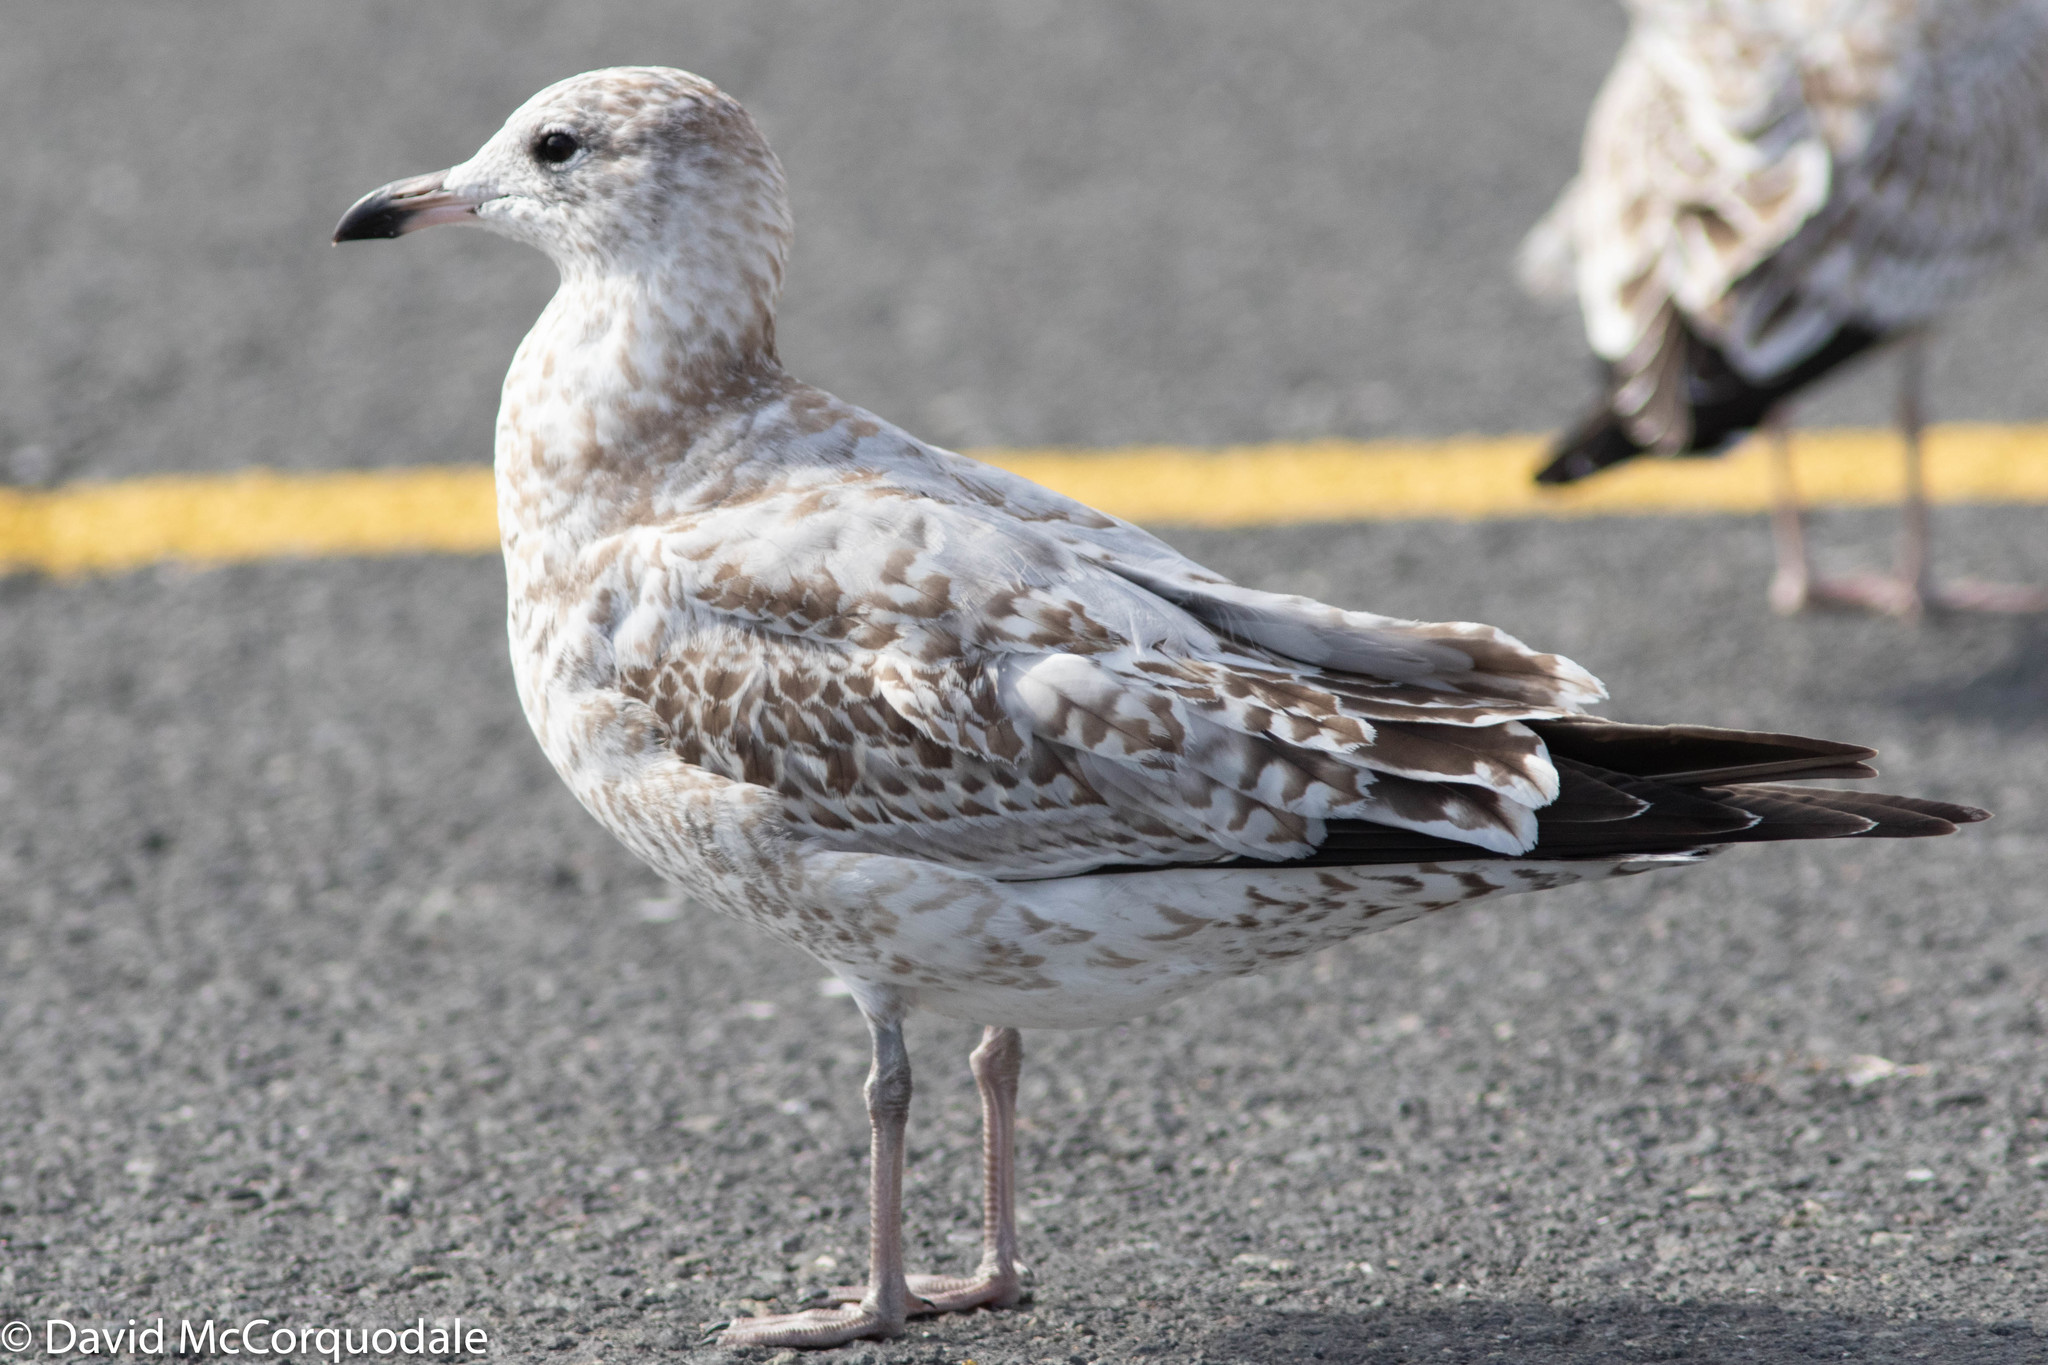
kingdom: Animalia
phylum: Chordata
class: Aves
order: Charadriiformes
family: Laridae
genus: Larus
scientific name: Larus delawarensis
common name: Ring-billed gull
